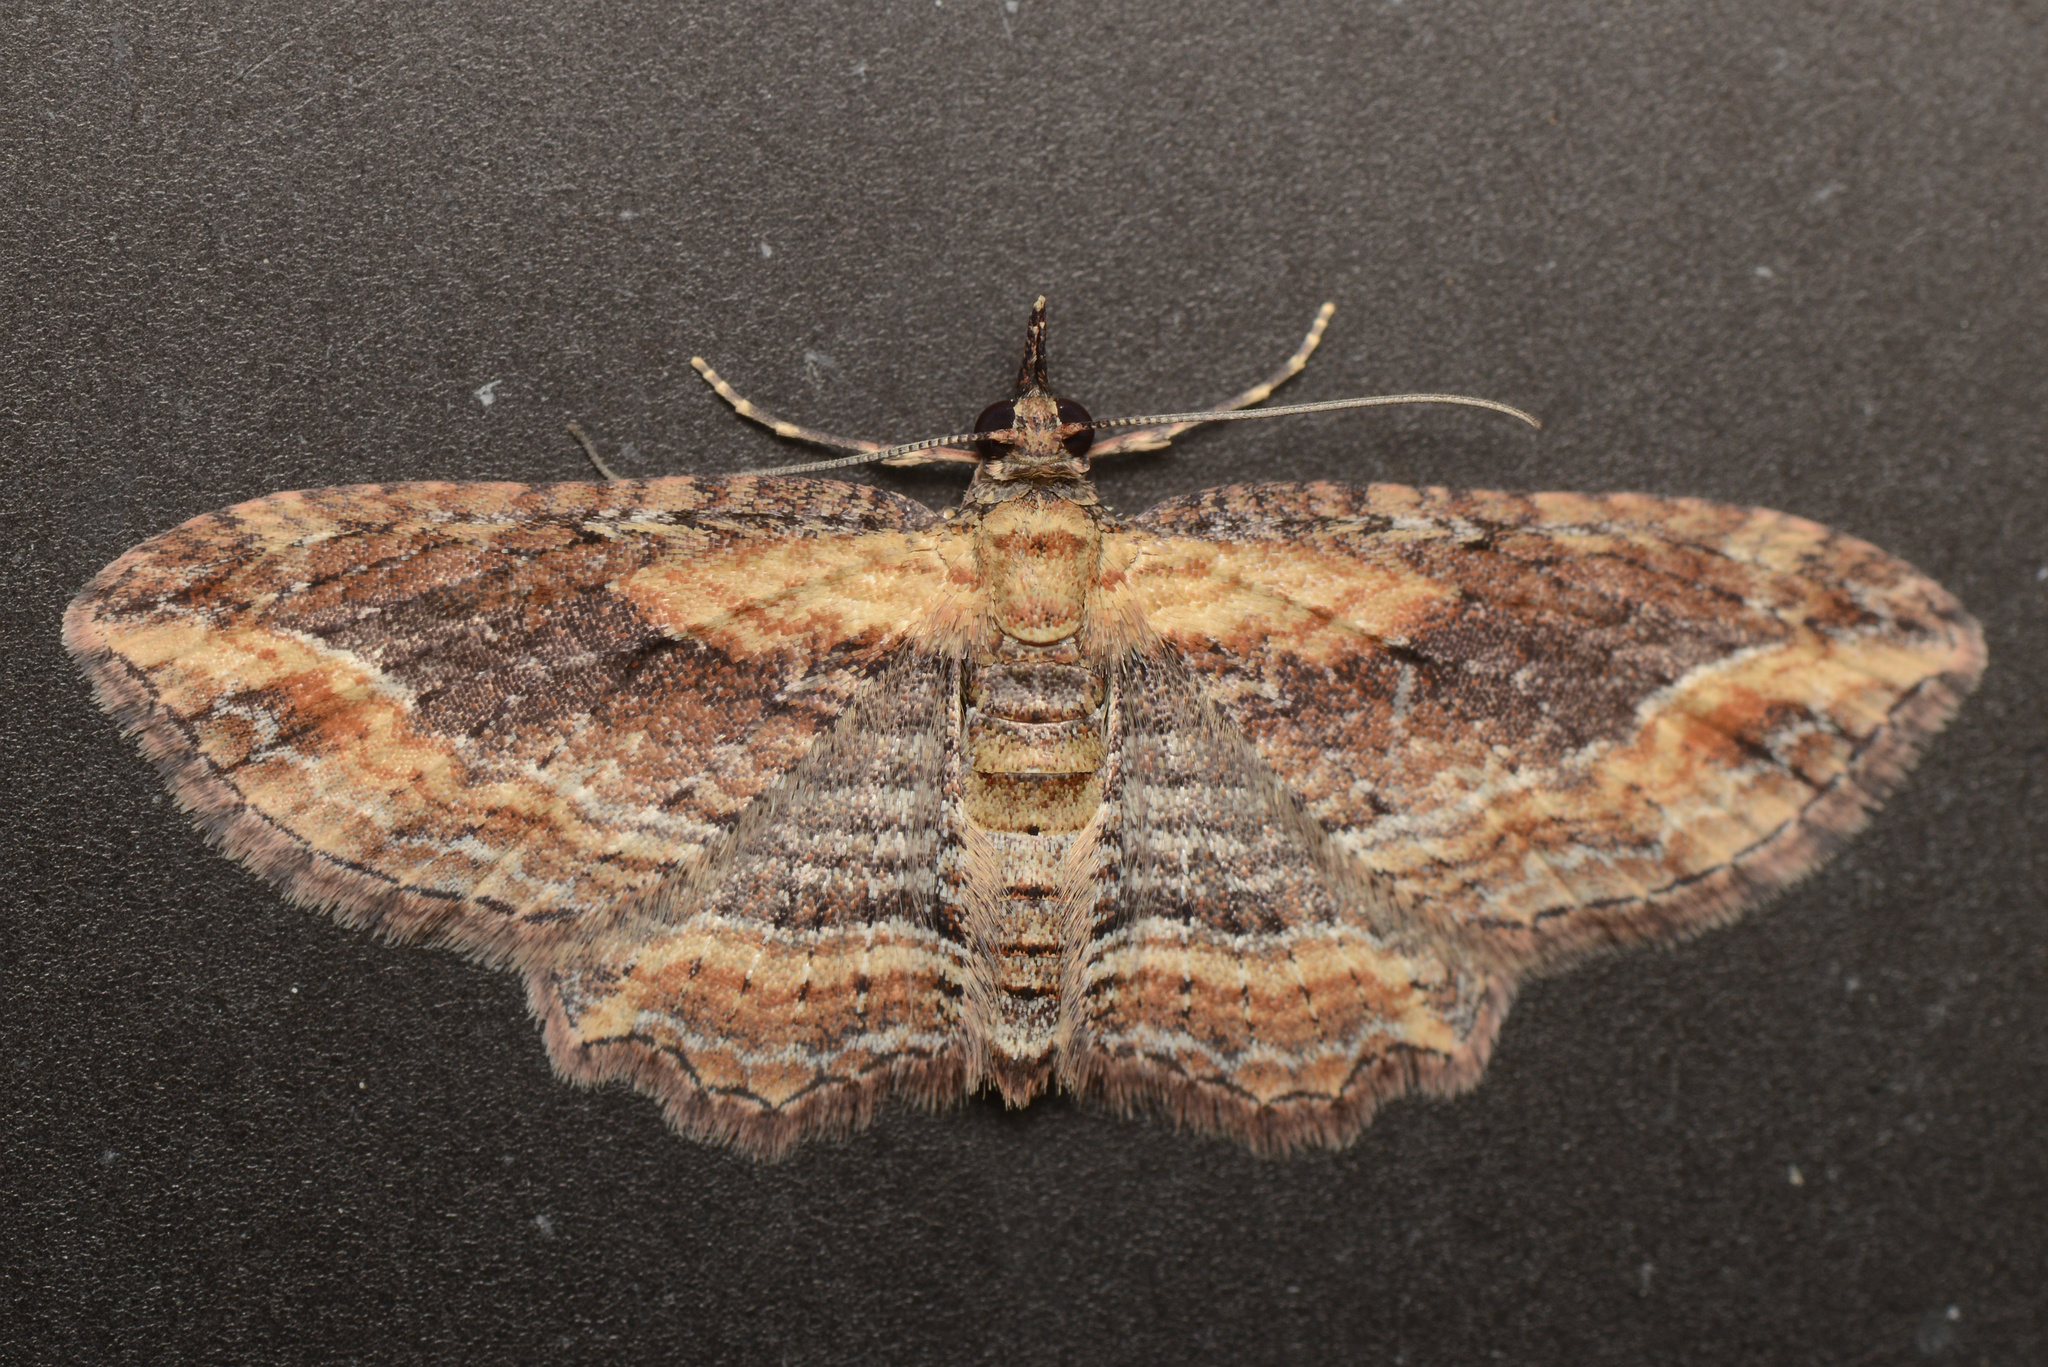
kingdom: Animalia
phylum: Arthropoda
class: Insecta
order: Lepidoptera
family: Geometridae
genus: Chloroclystis
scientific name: Chloroclystis filata
